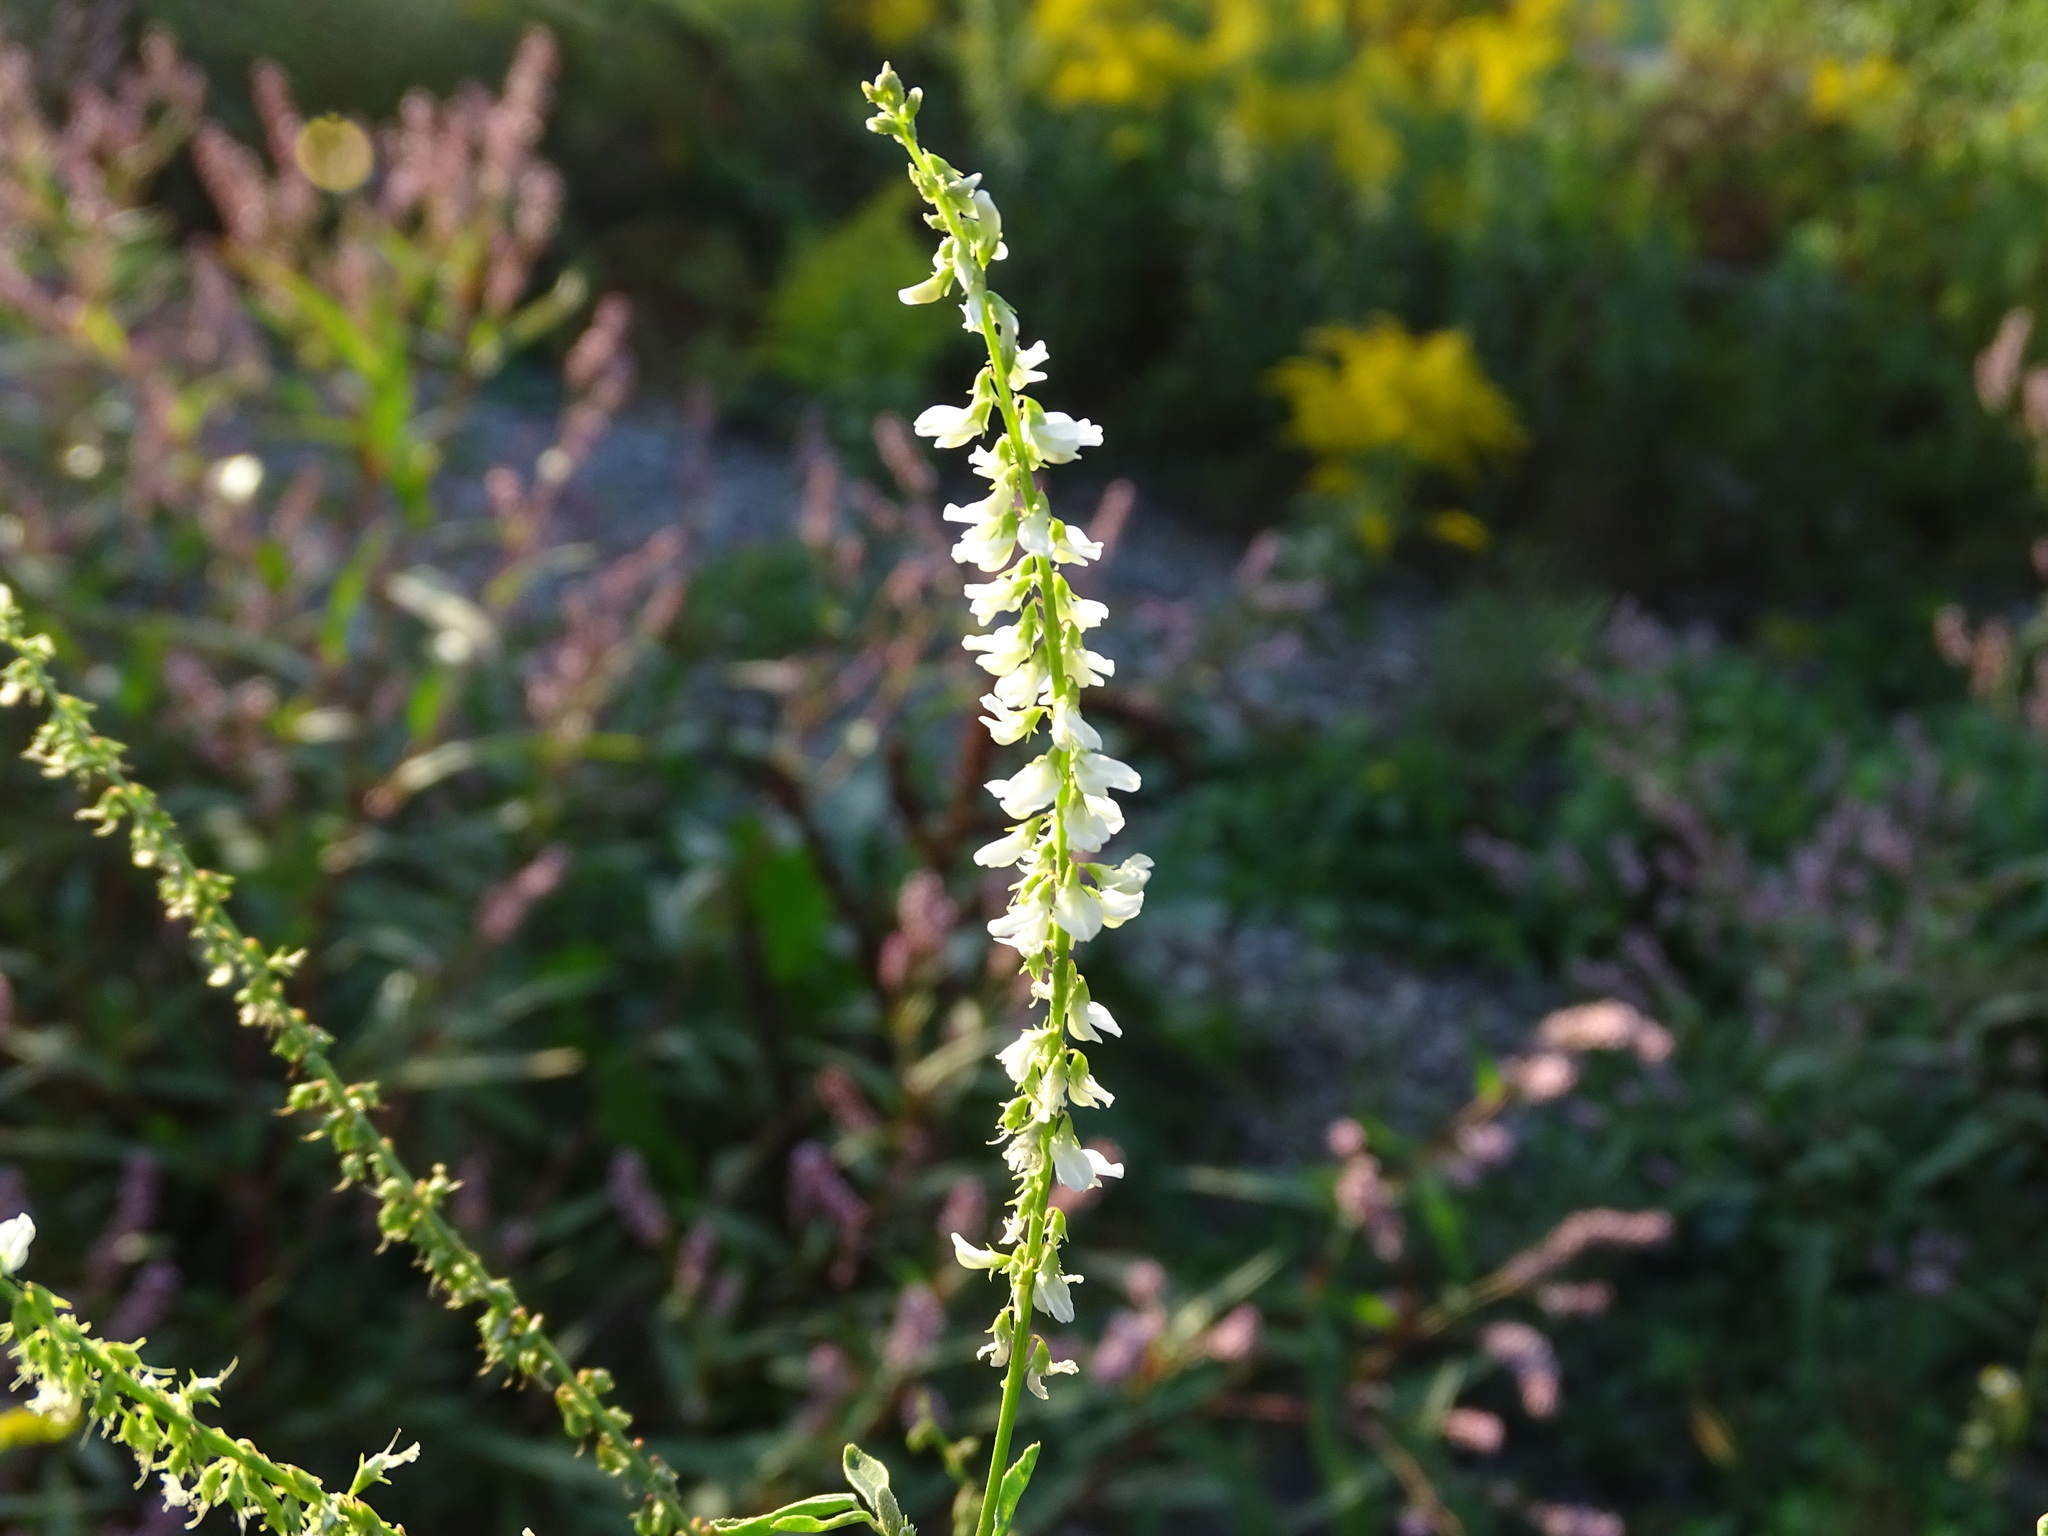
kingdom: Plantae
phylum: Tracheophyta
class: Magnoliopsida
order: Fabales
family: Fabaceae
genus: Melilotus
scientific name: Melilotus albus
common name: White melilot
